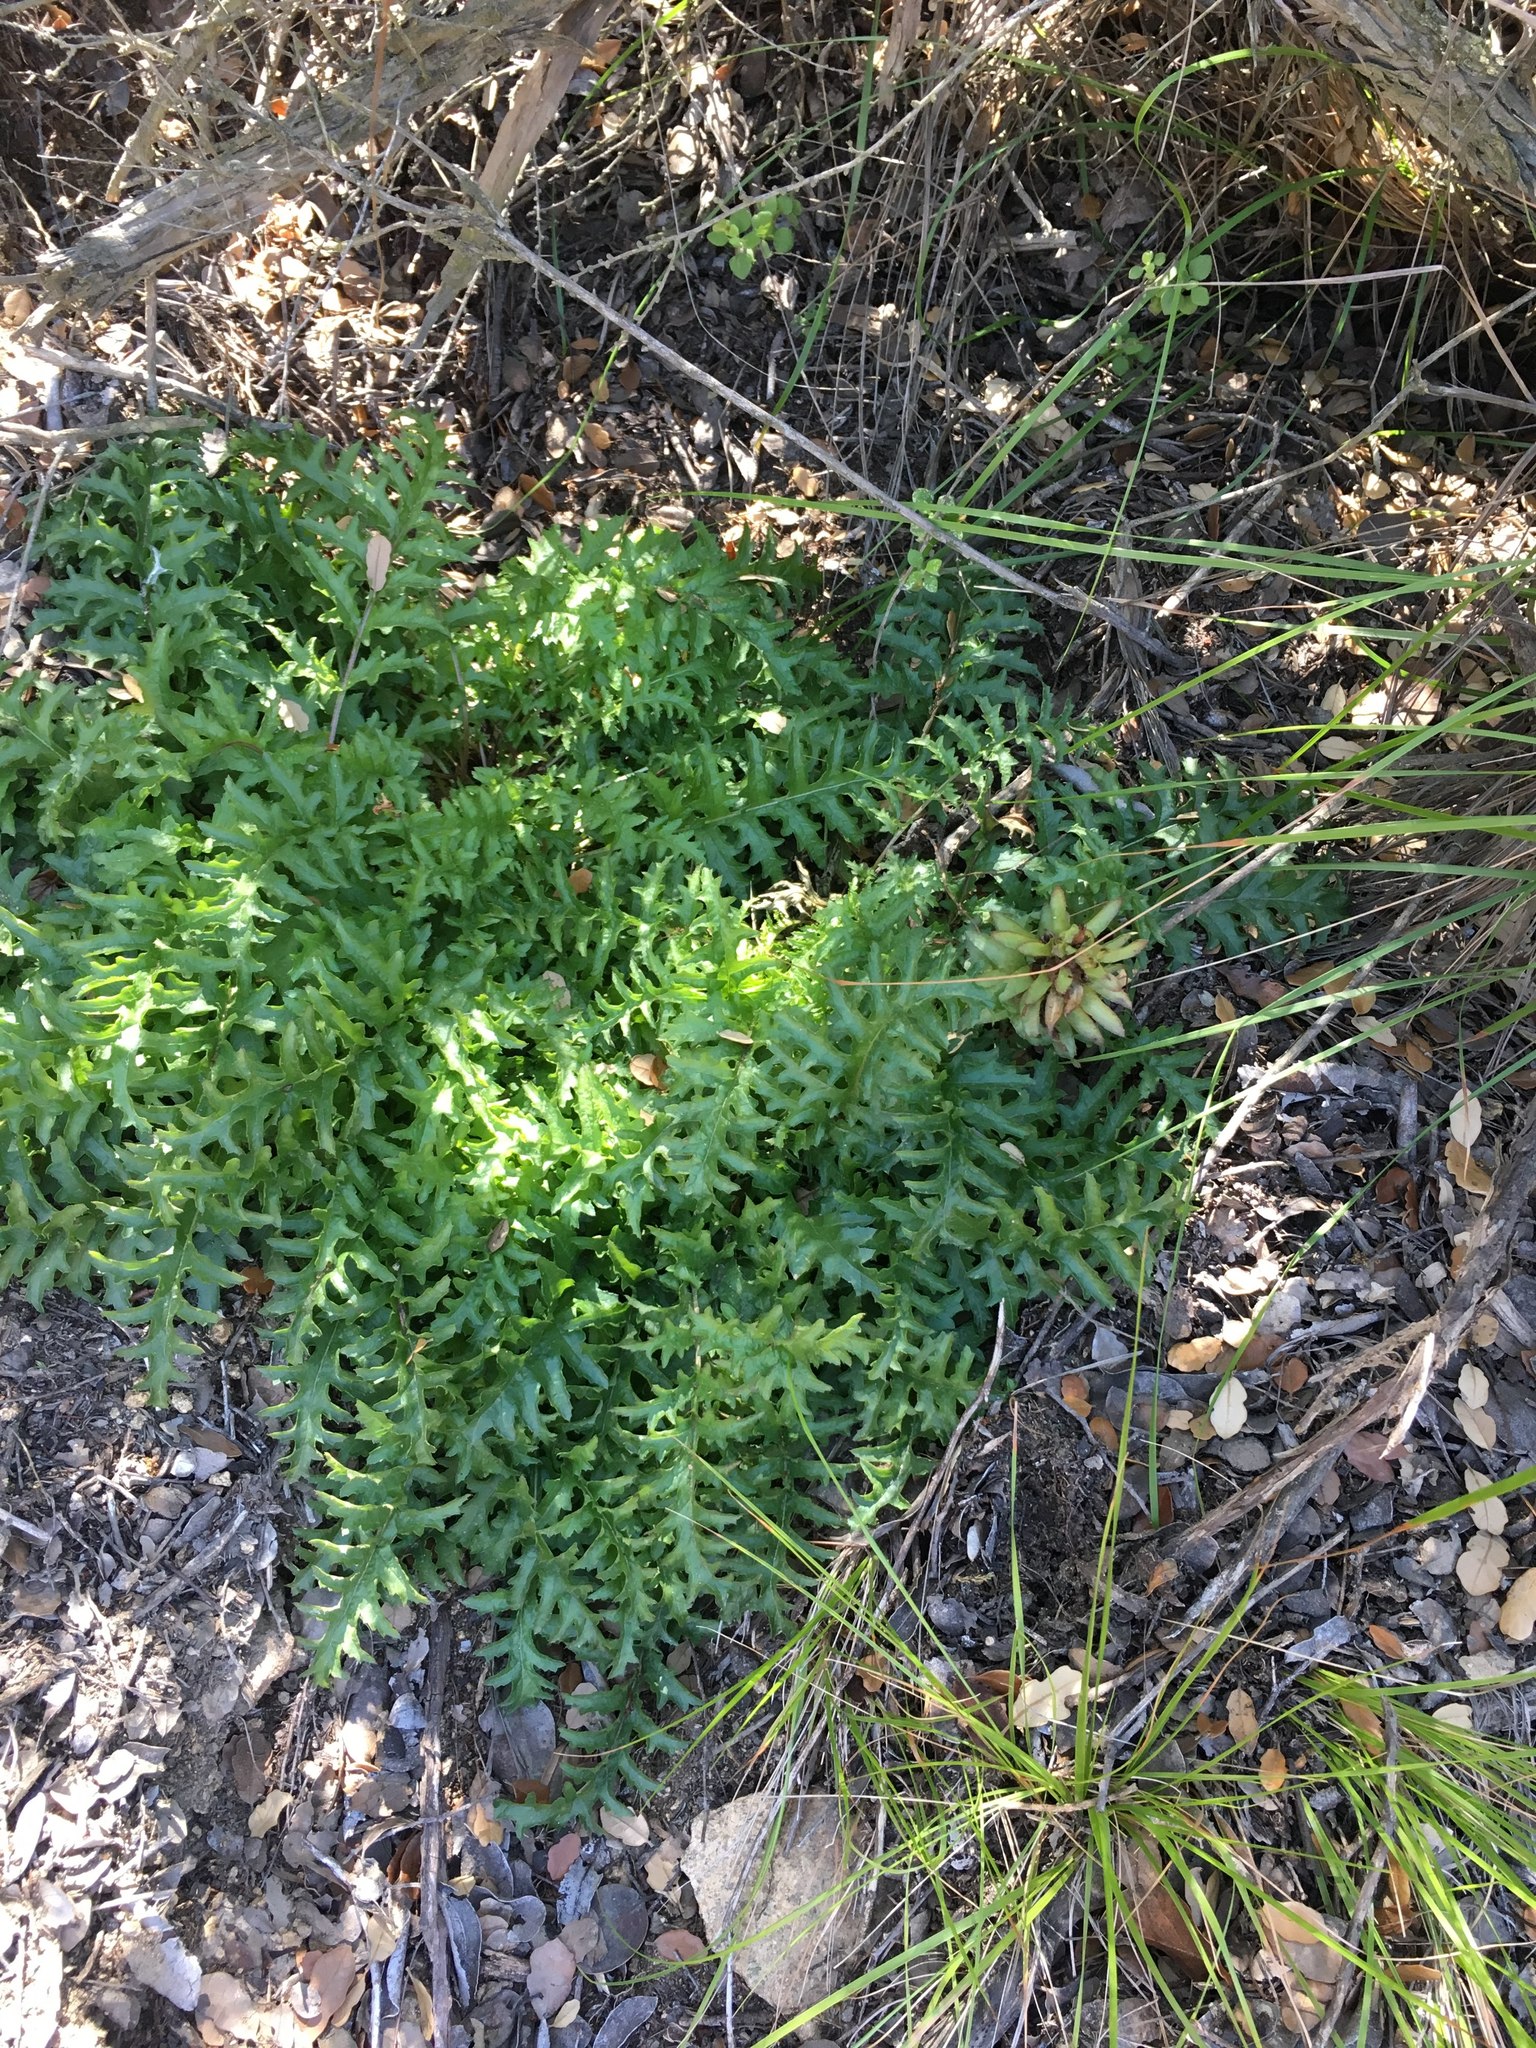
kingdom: Plantae
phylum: Tracheophyta
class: Magnoliopsida
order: Lamiales
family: Orobanchaceae
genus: Pedicularis
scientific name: Pedicularis densiflora
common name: Indian warrior
